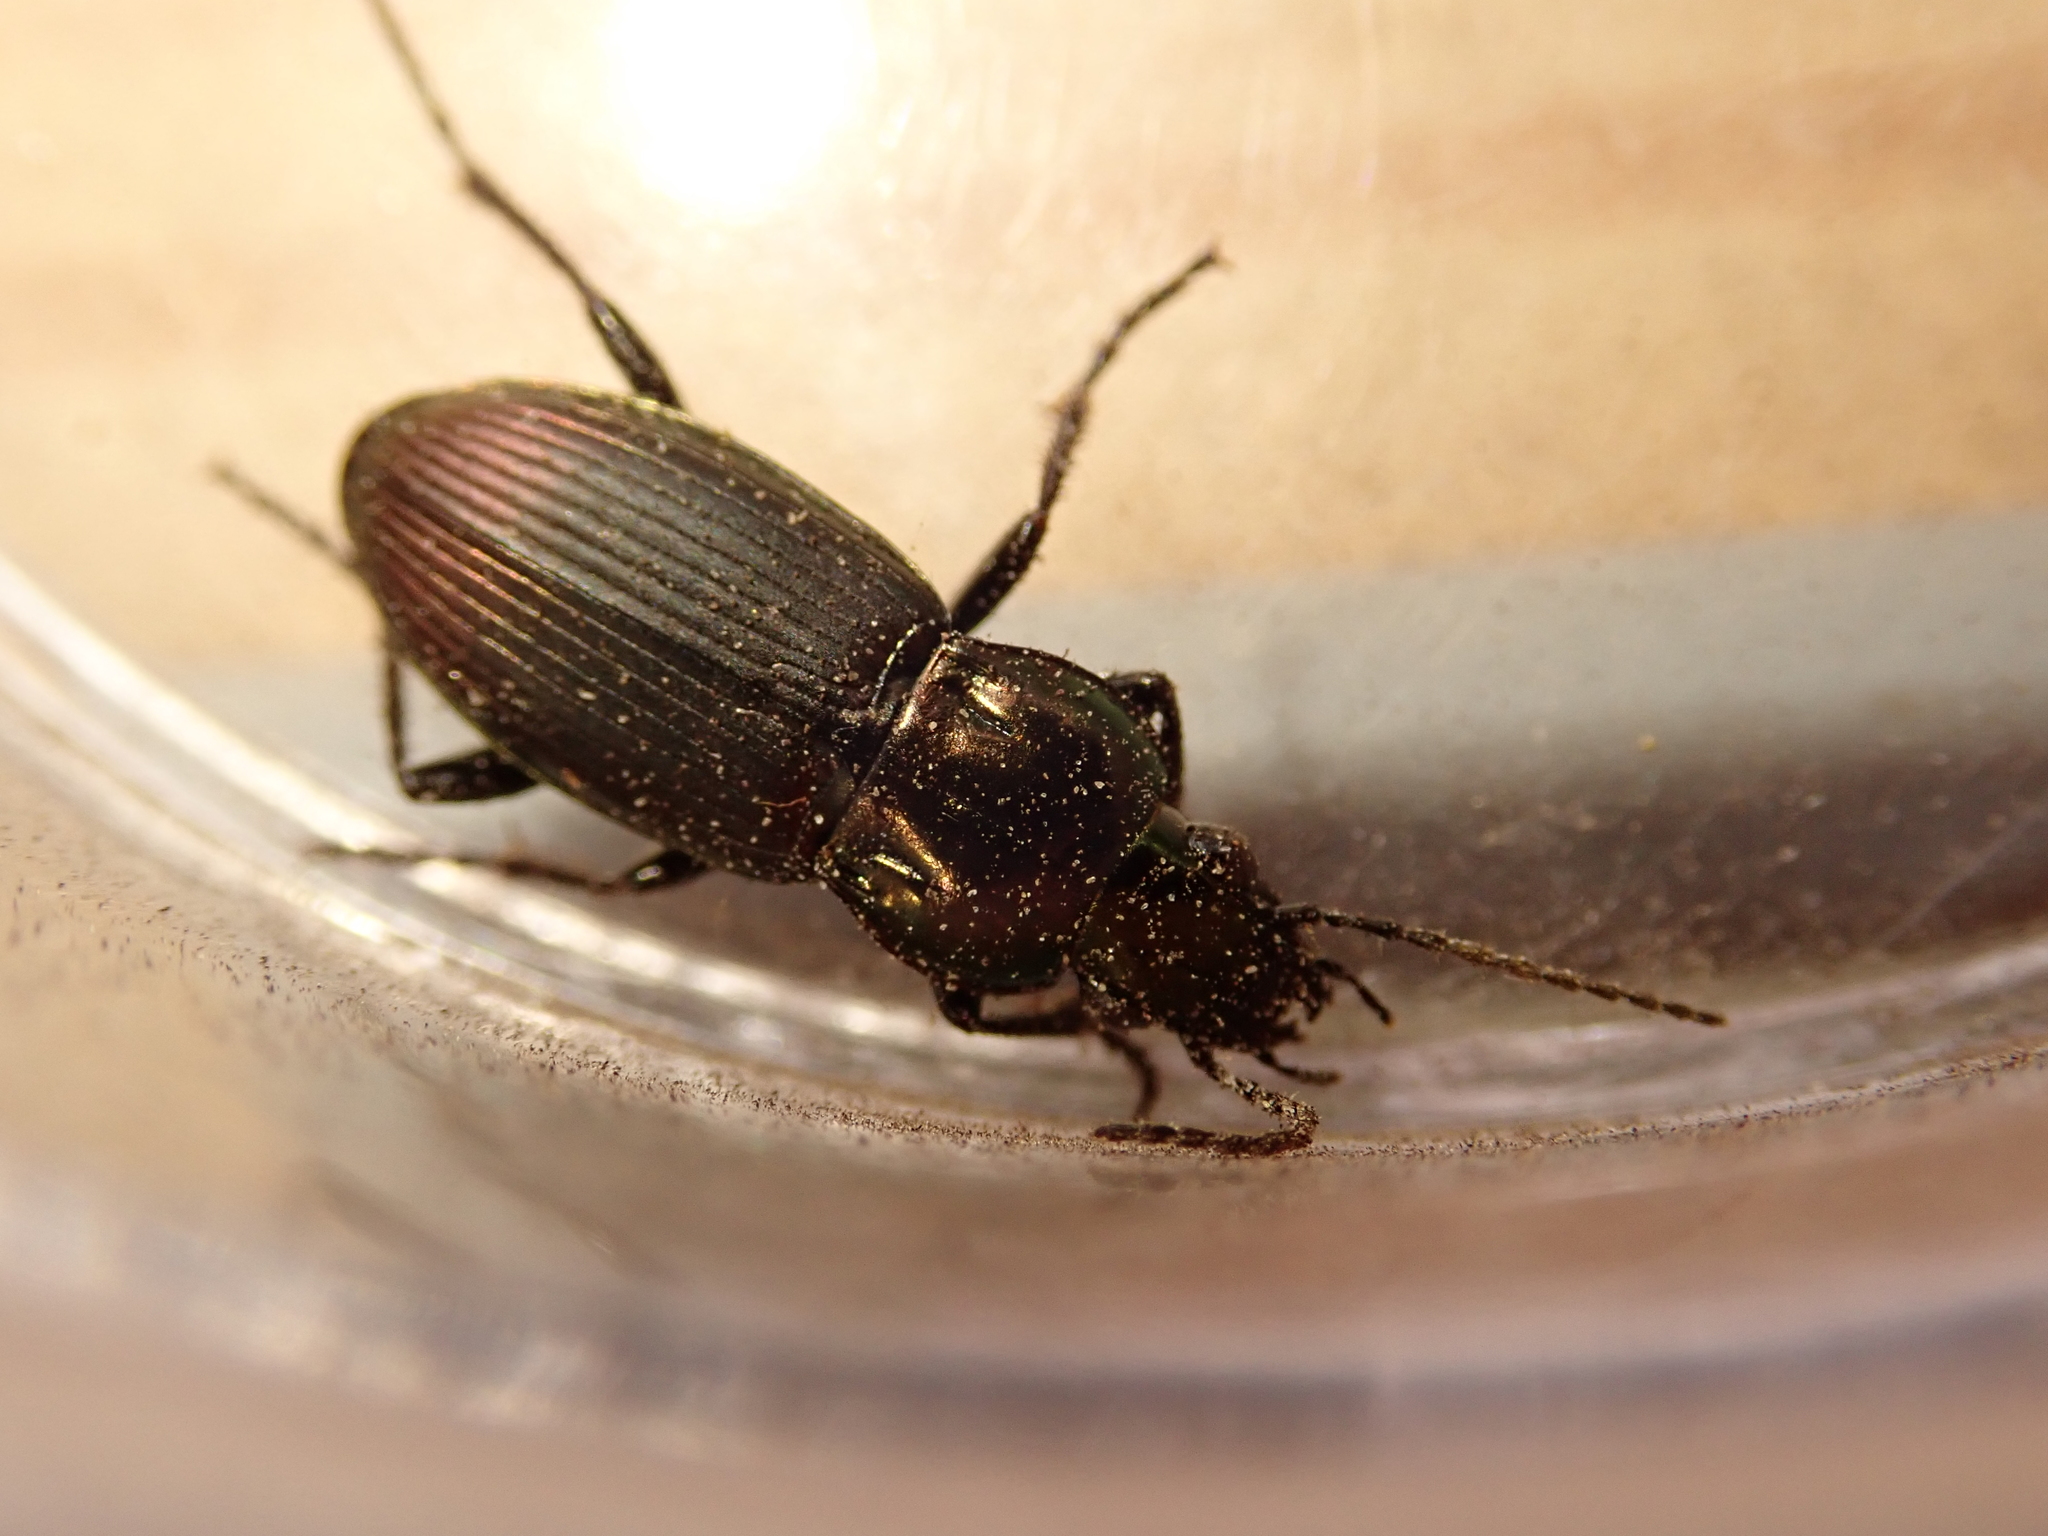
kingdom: Animalia
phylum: Arthropoda
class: Insecta
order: Coleoptera
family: Carabidae
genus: Poecilus
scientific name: Poecilus lepidus
